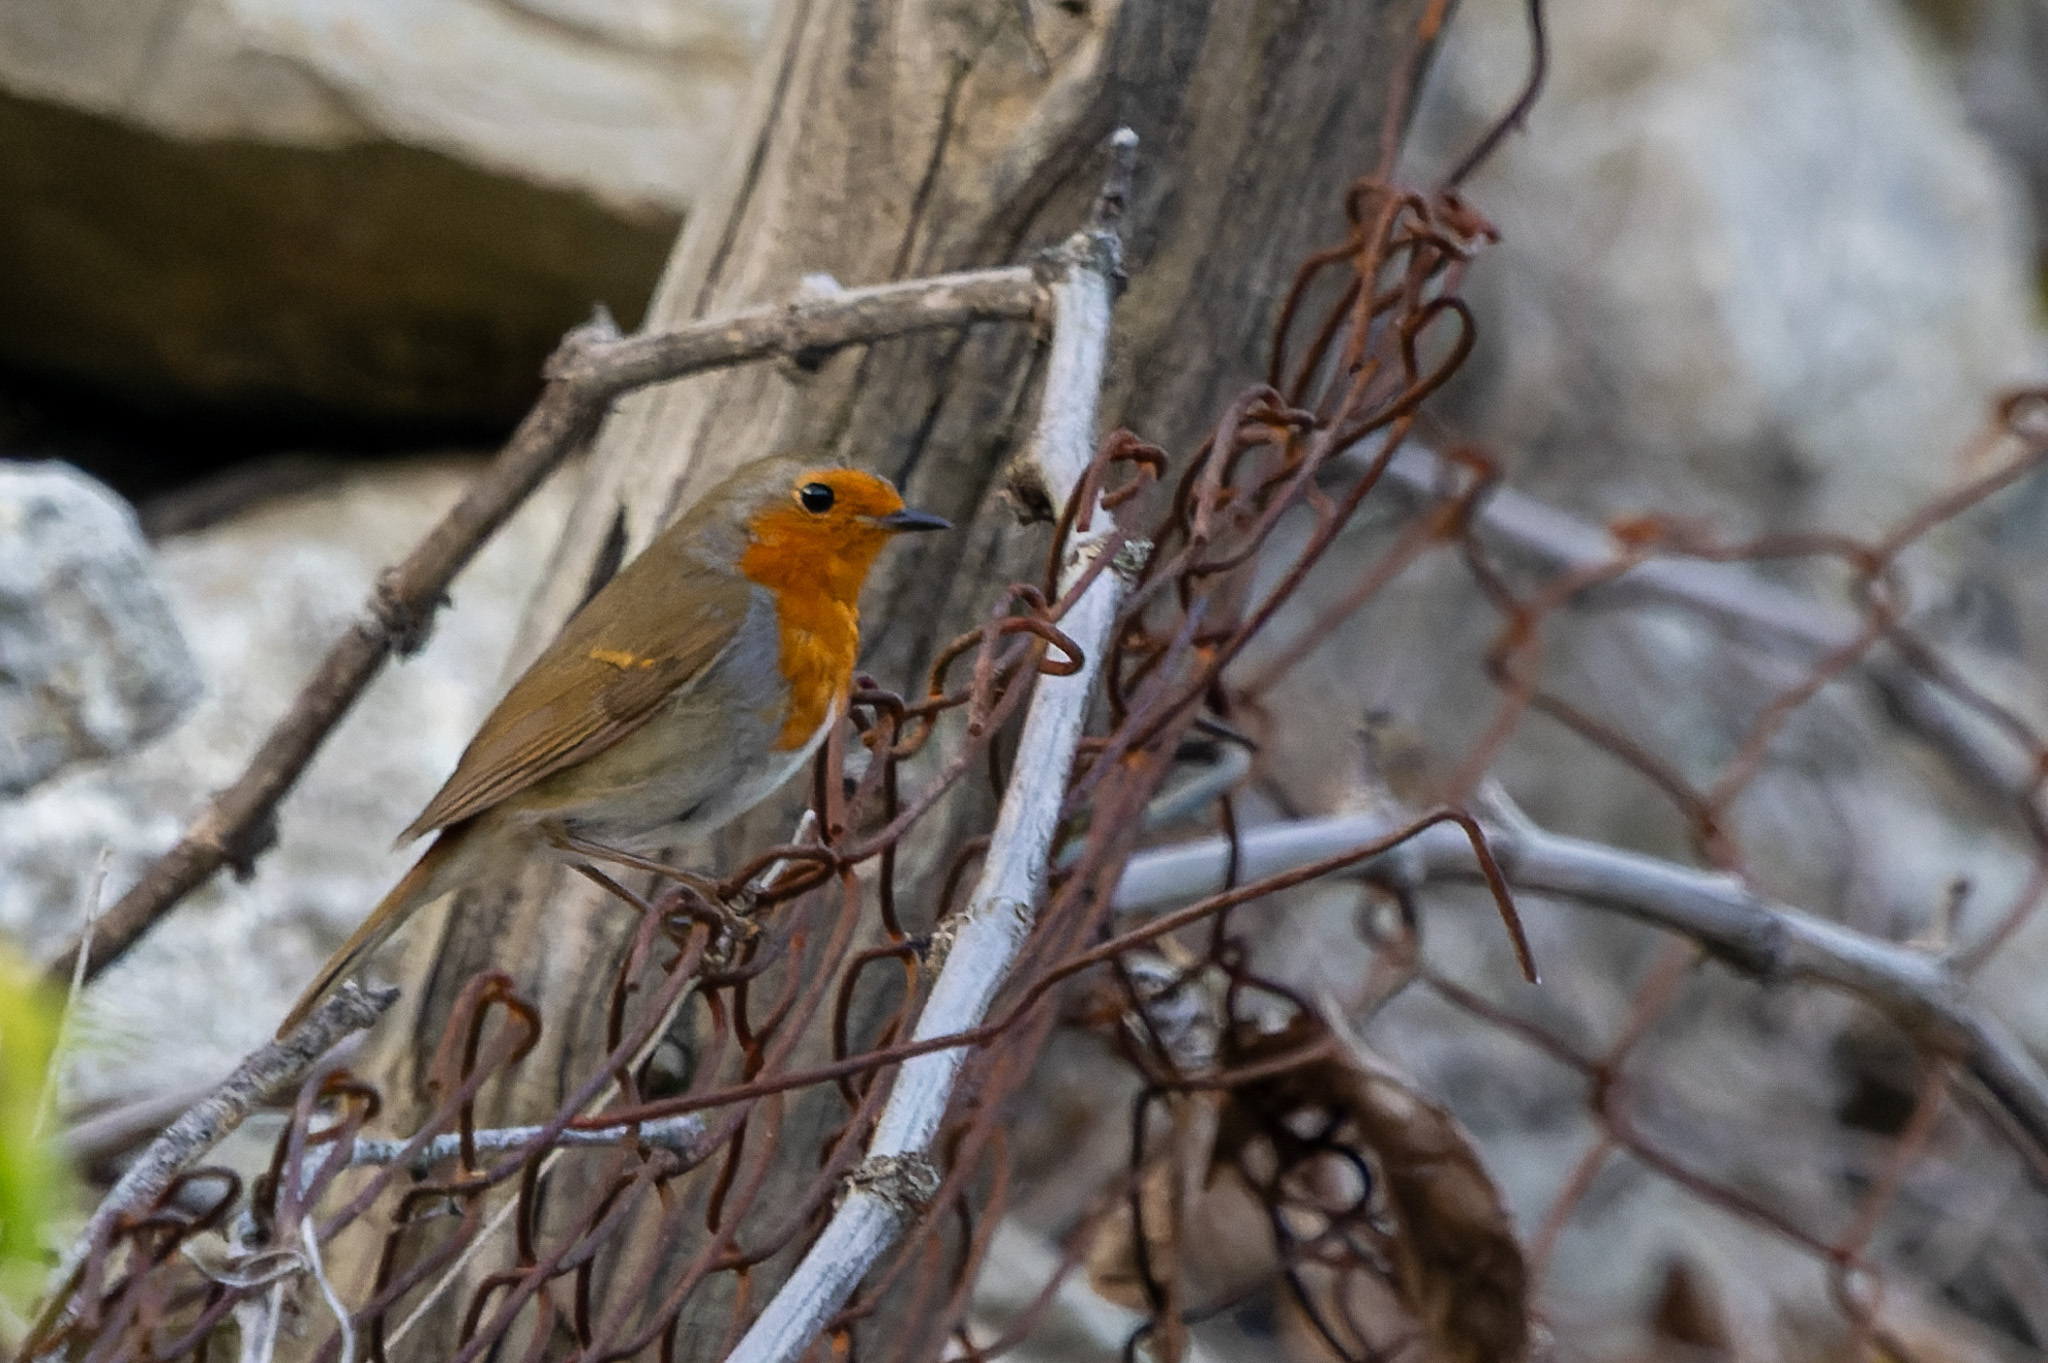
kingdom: Animalia
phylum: Chordata
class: Aves
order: Passeriformes
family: Muscicapidae
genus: Erithacus
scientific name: Erithacus rubecula
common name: European robin
